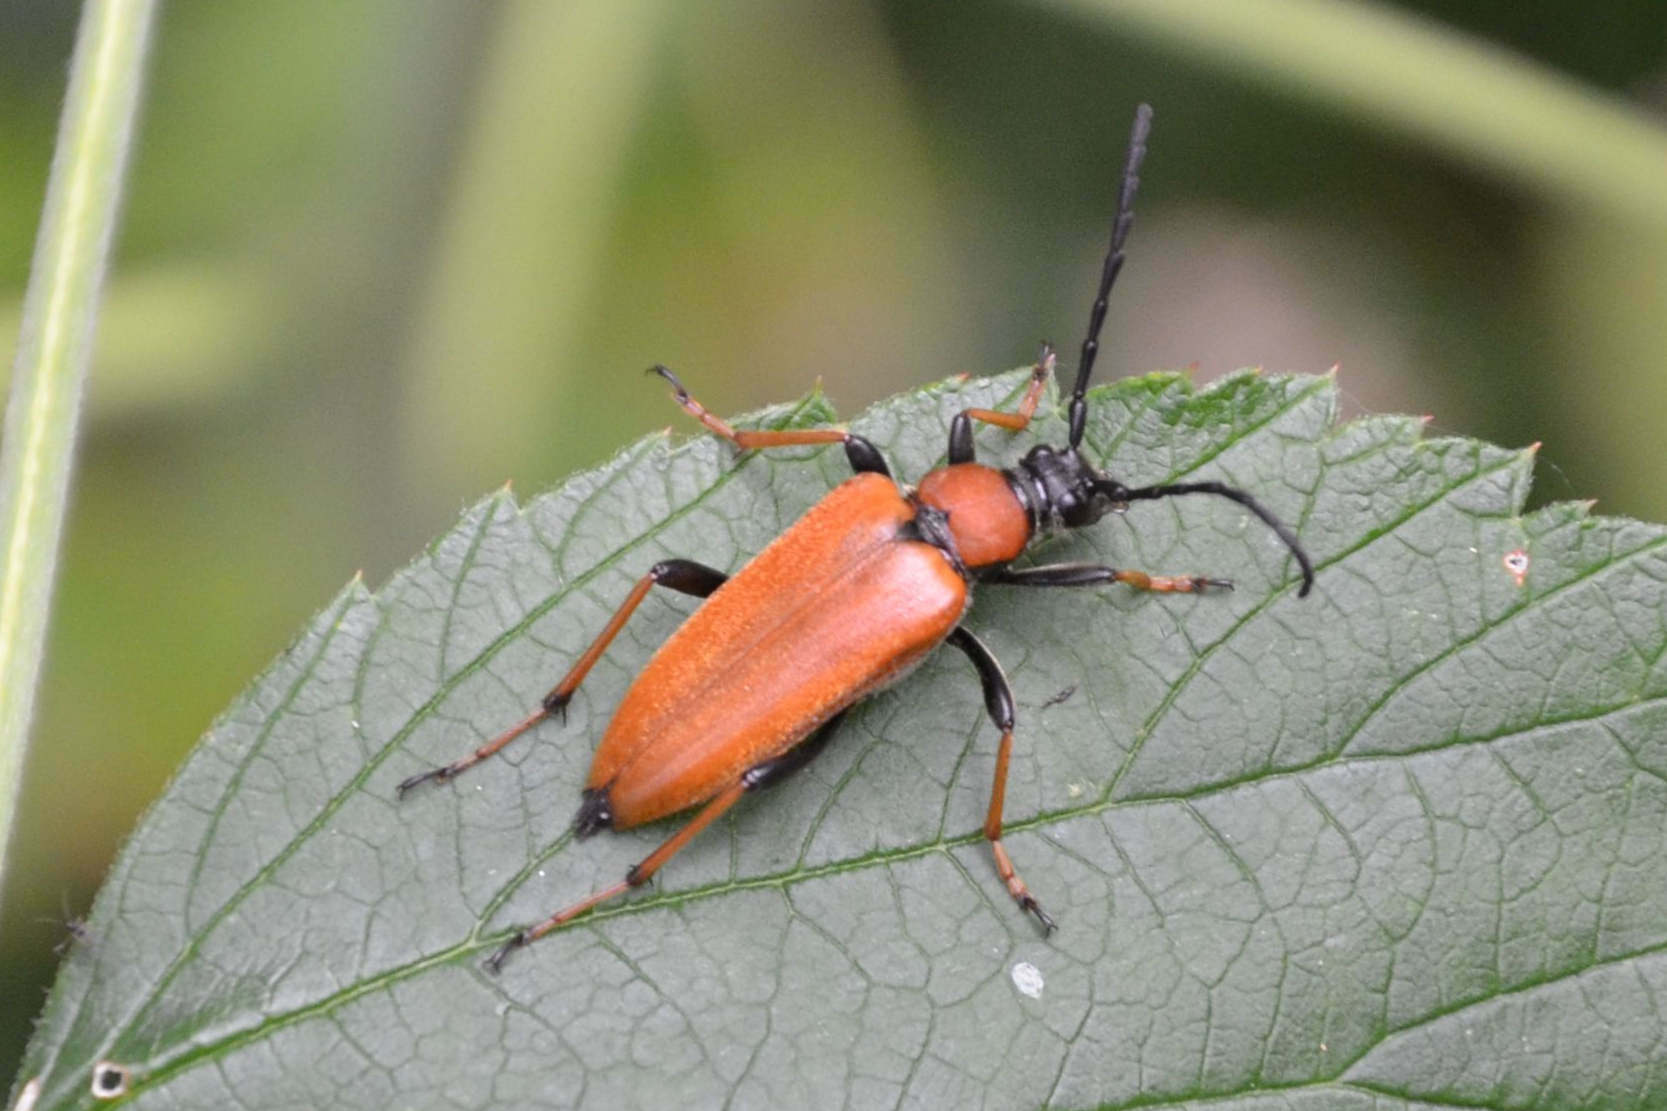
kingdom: Animalia
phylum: Arthropoda
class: Insecta
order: Coleoptera
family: Cerambycidae
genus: Stictoleptura
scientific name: Stictoleptura rubra
